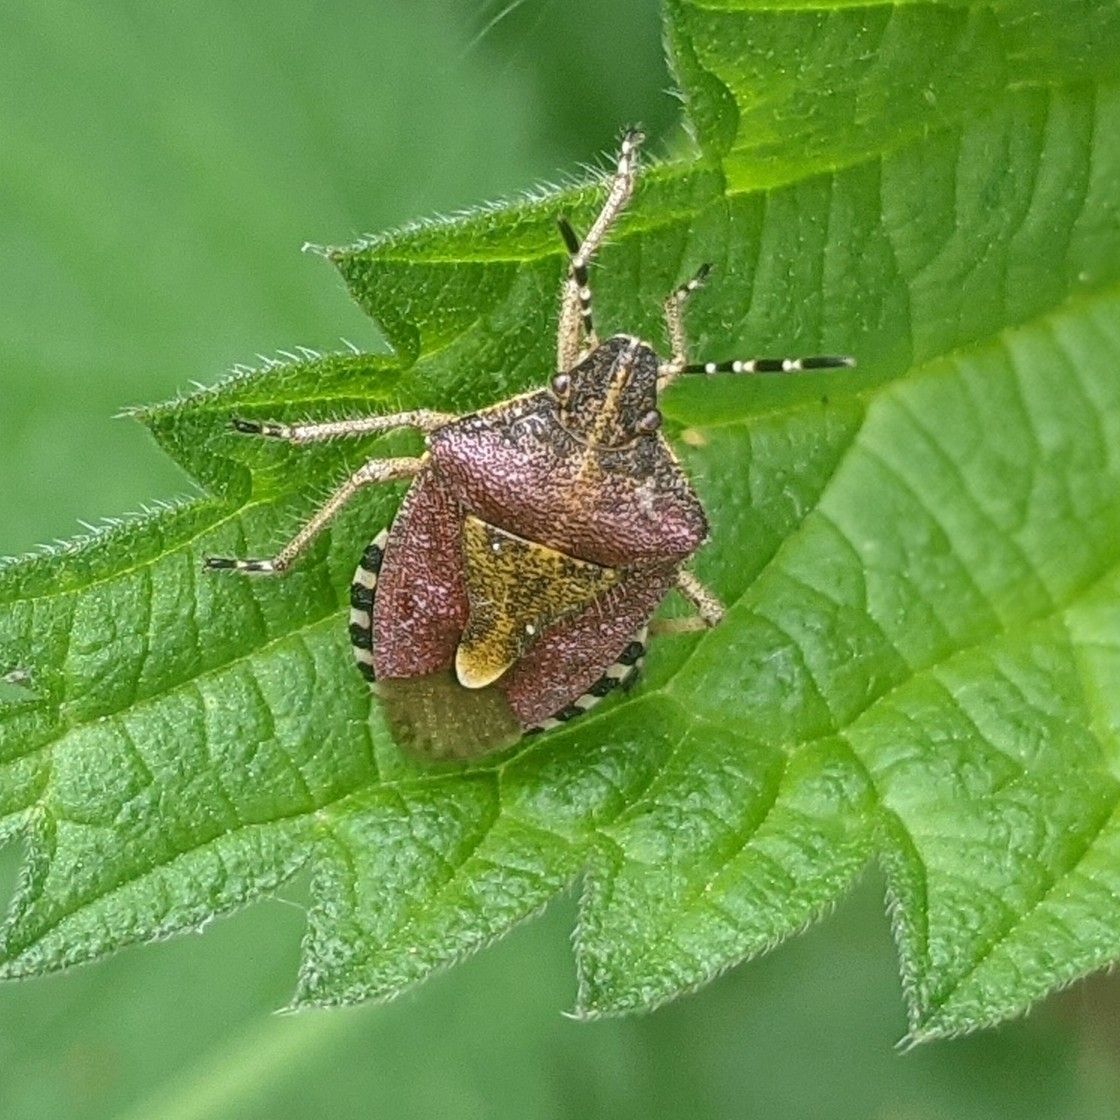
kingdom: Animalia
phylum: Arthropoda
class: Insecta
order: Hemiptera
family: Pentatomidae
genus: Dolycoris
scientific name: Dolycoris baccarum
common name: Sloe bug
